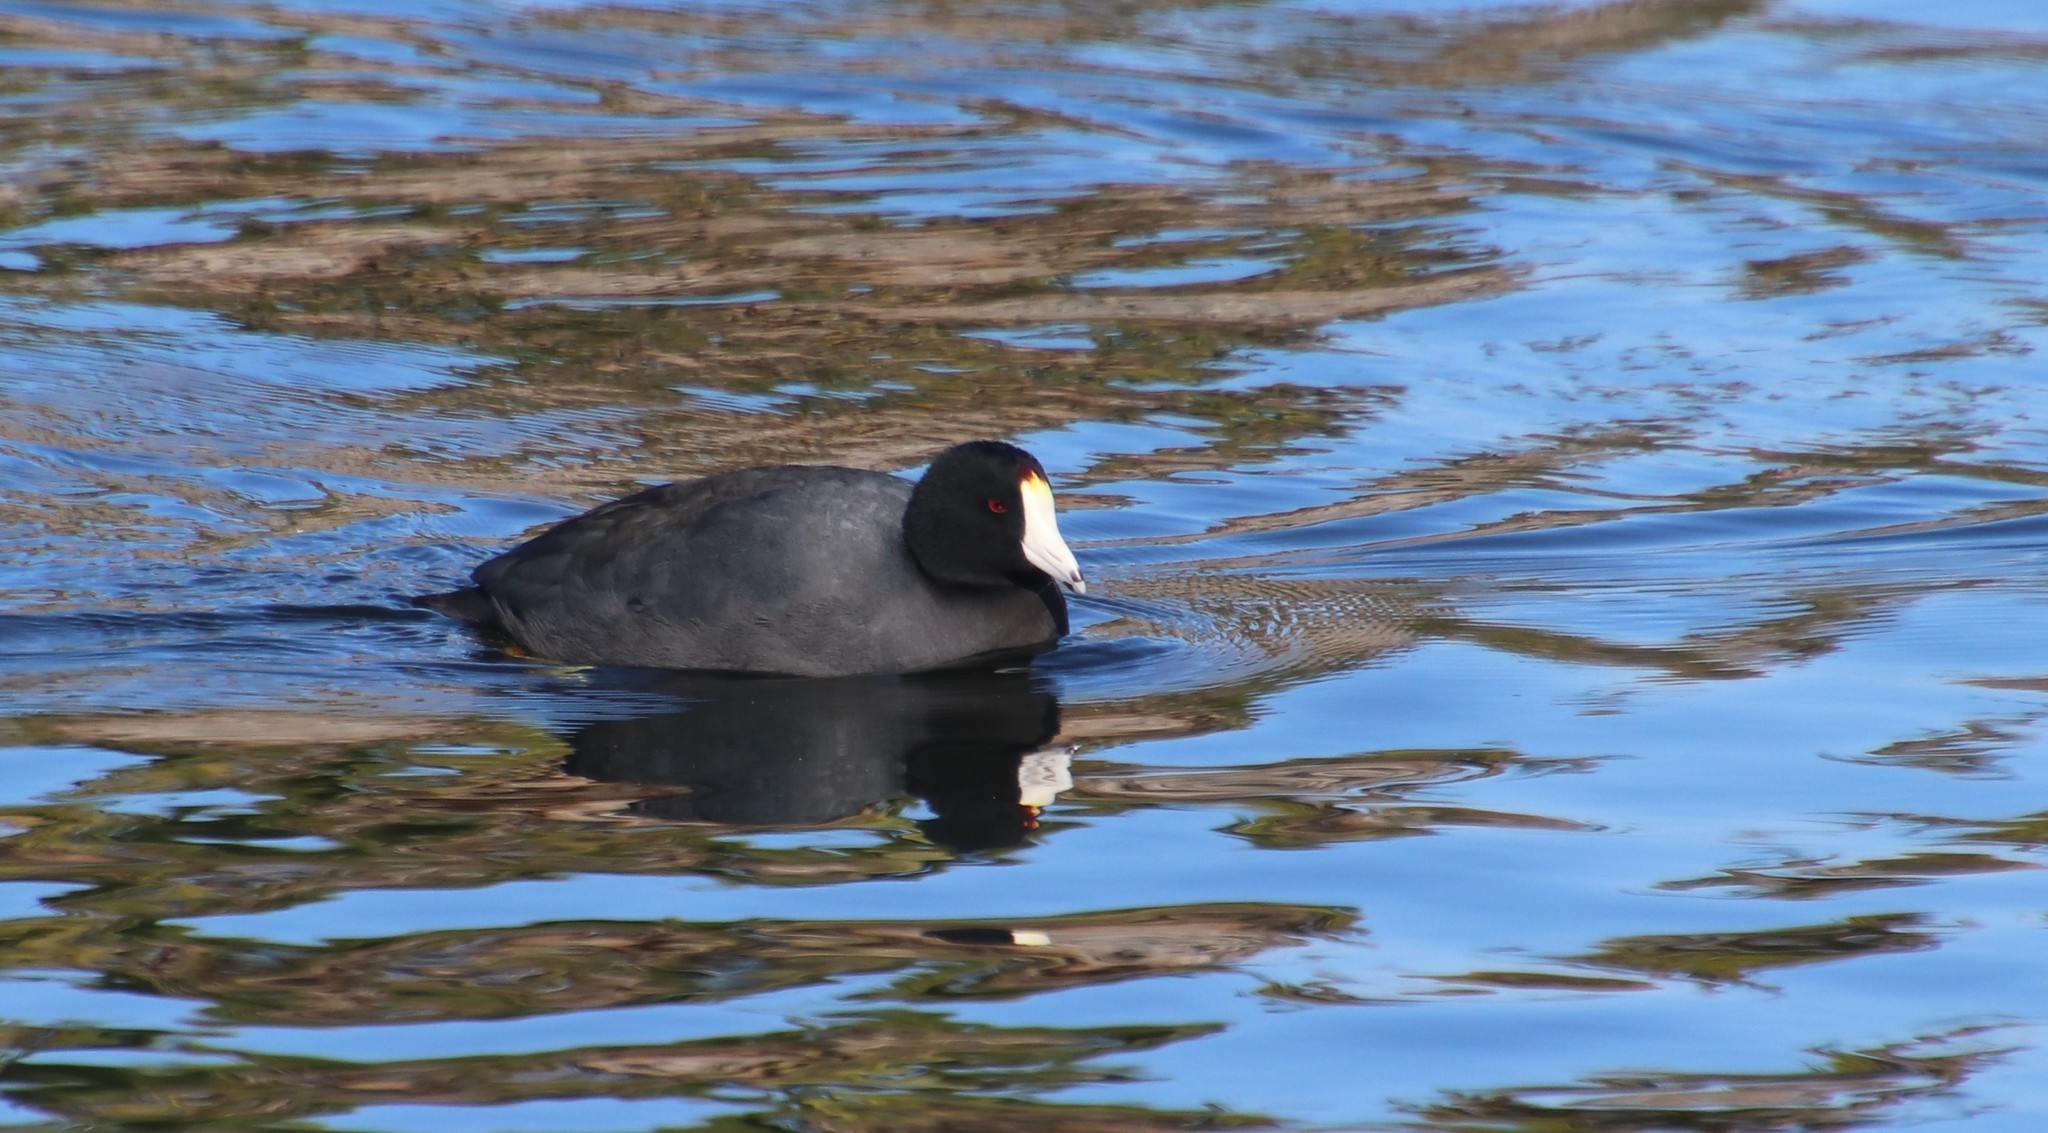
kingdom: Animalia
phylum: Chordata
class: Aves
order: Gruiformes
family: Rallidae
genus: Fulica
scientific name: Fulica americana
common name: American coot
